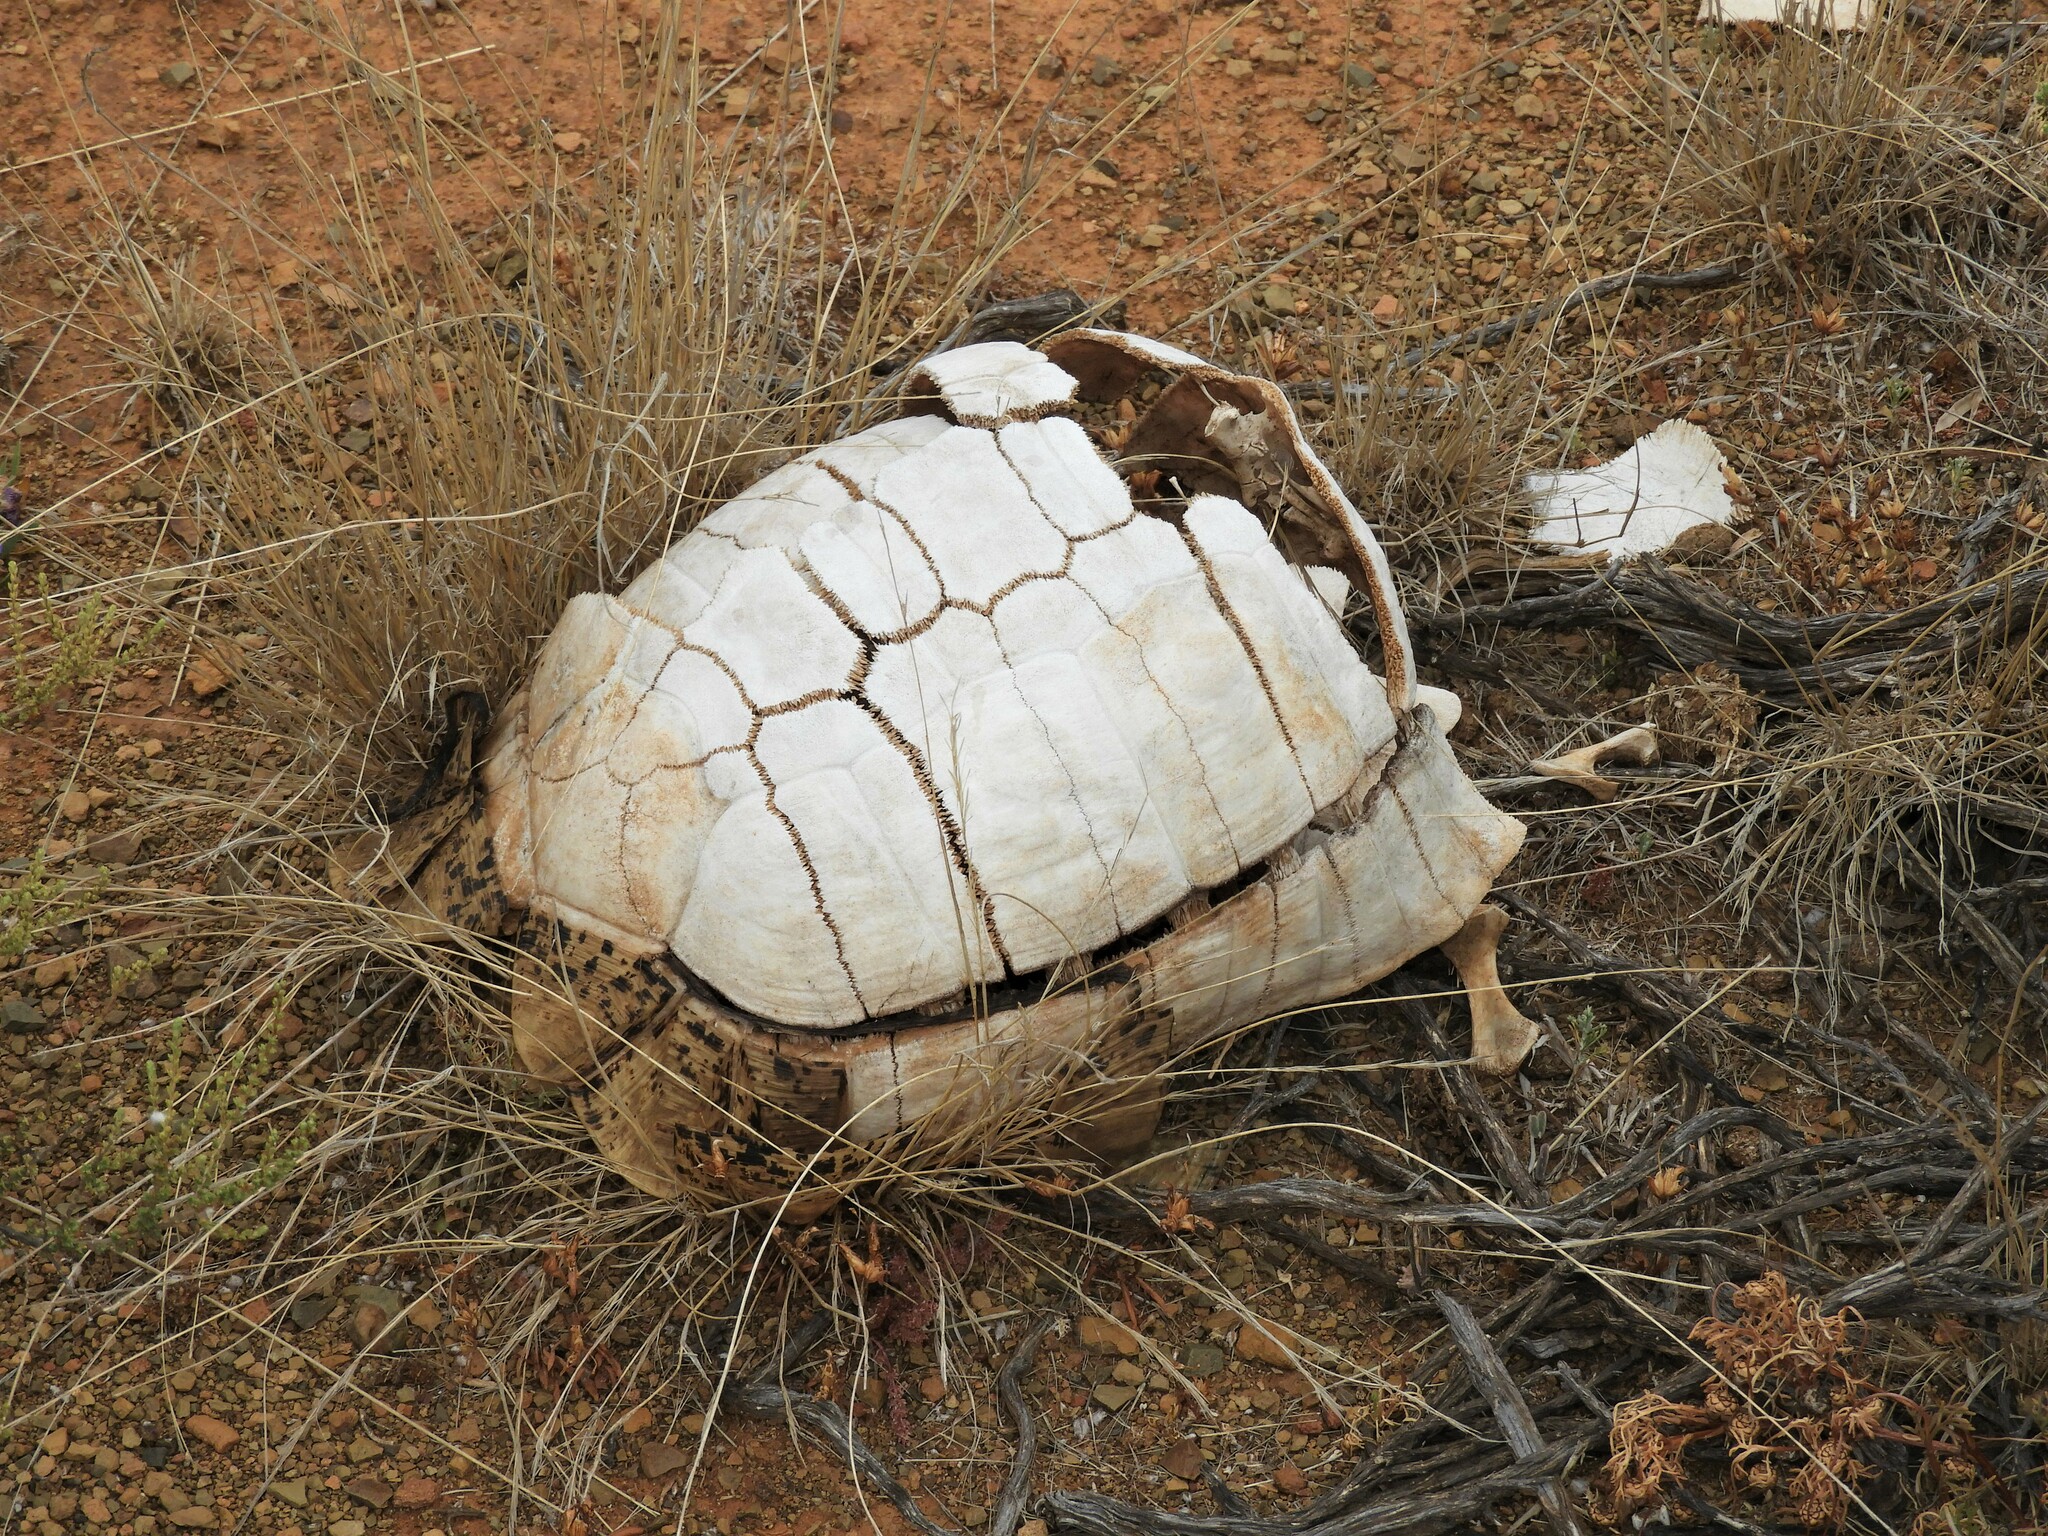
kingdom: Animalia
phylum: Chordata
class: Testudines
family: Testudinidae
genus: Stigmochelys
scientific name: Stigmochelys pardalis
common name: Leopard tortoise
